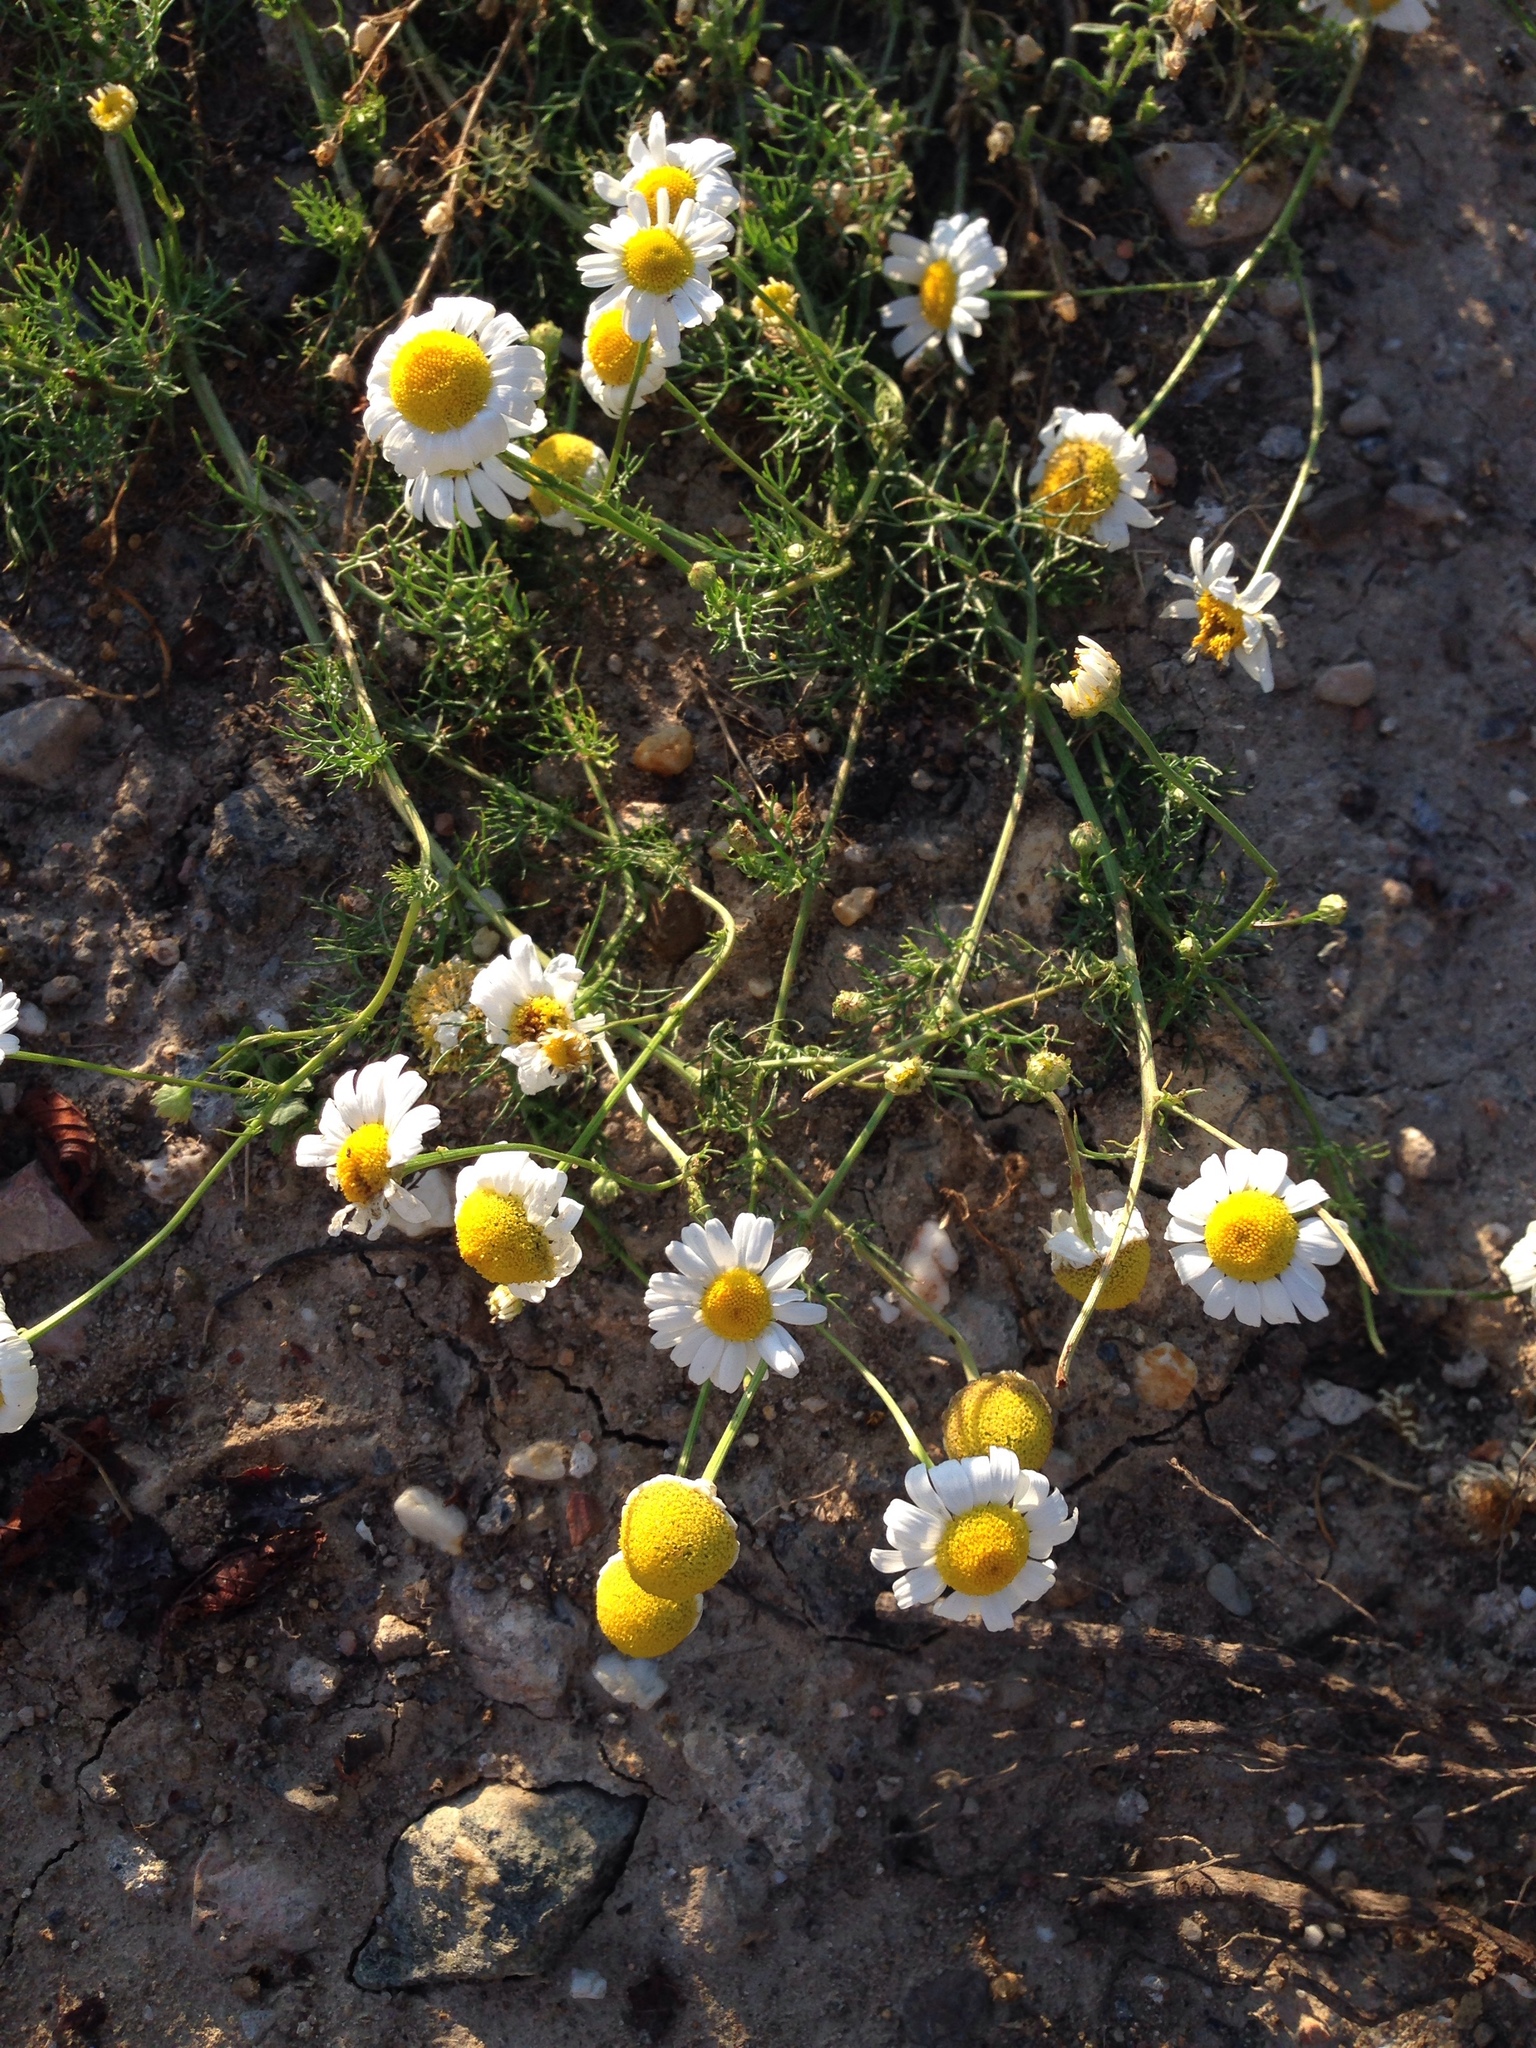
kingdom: Plantae
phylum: Tracheophyta
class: Magnoliopsida
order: Asterales
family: Asteraceae
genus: Matricaria
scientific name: Matricaria chamomilla
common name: Scented mayweed
